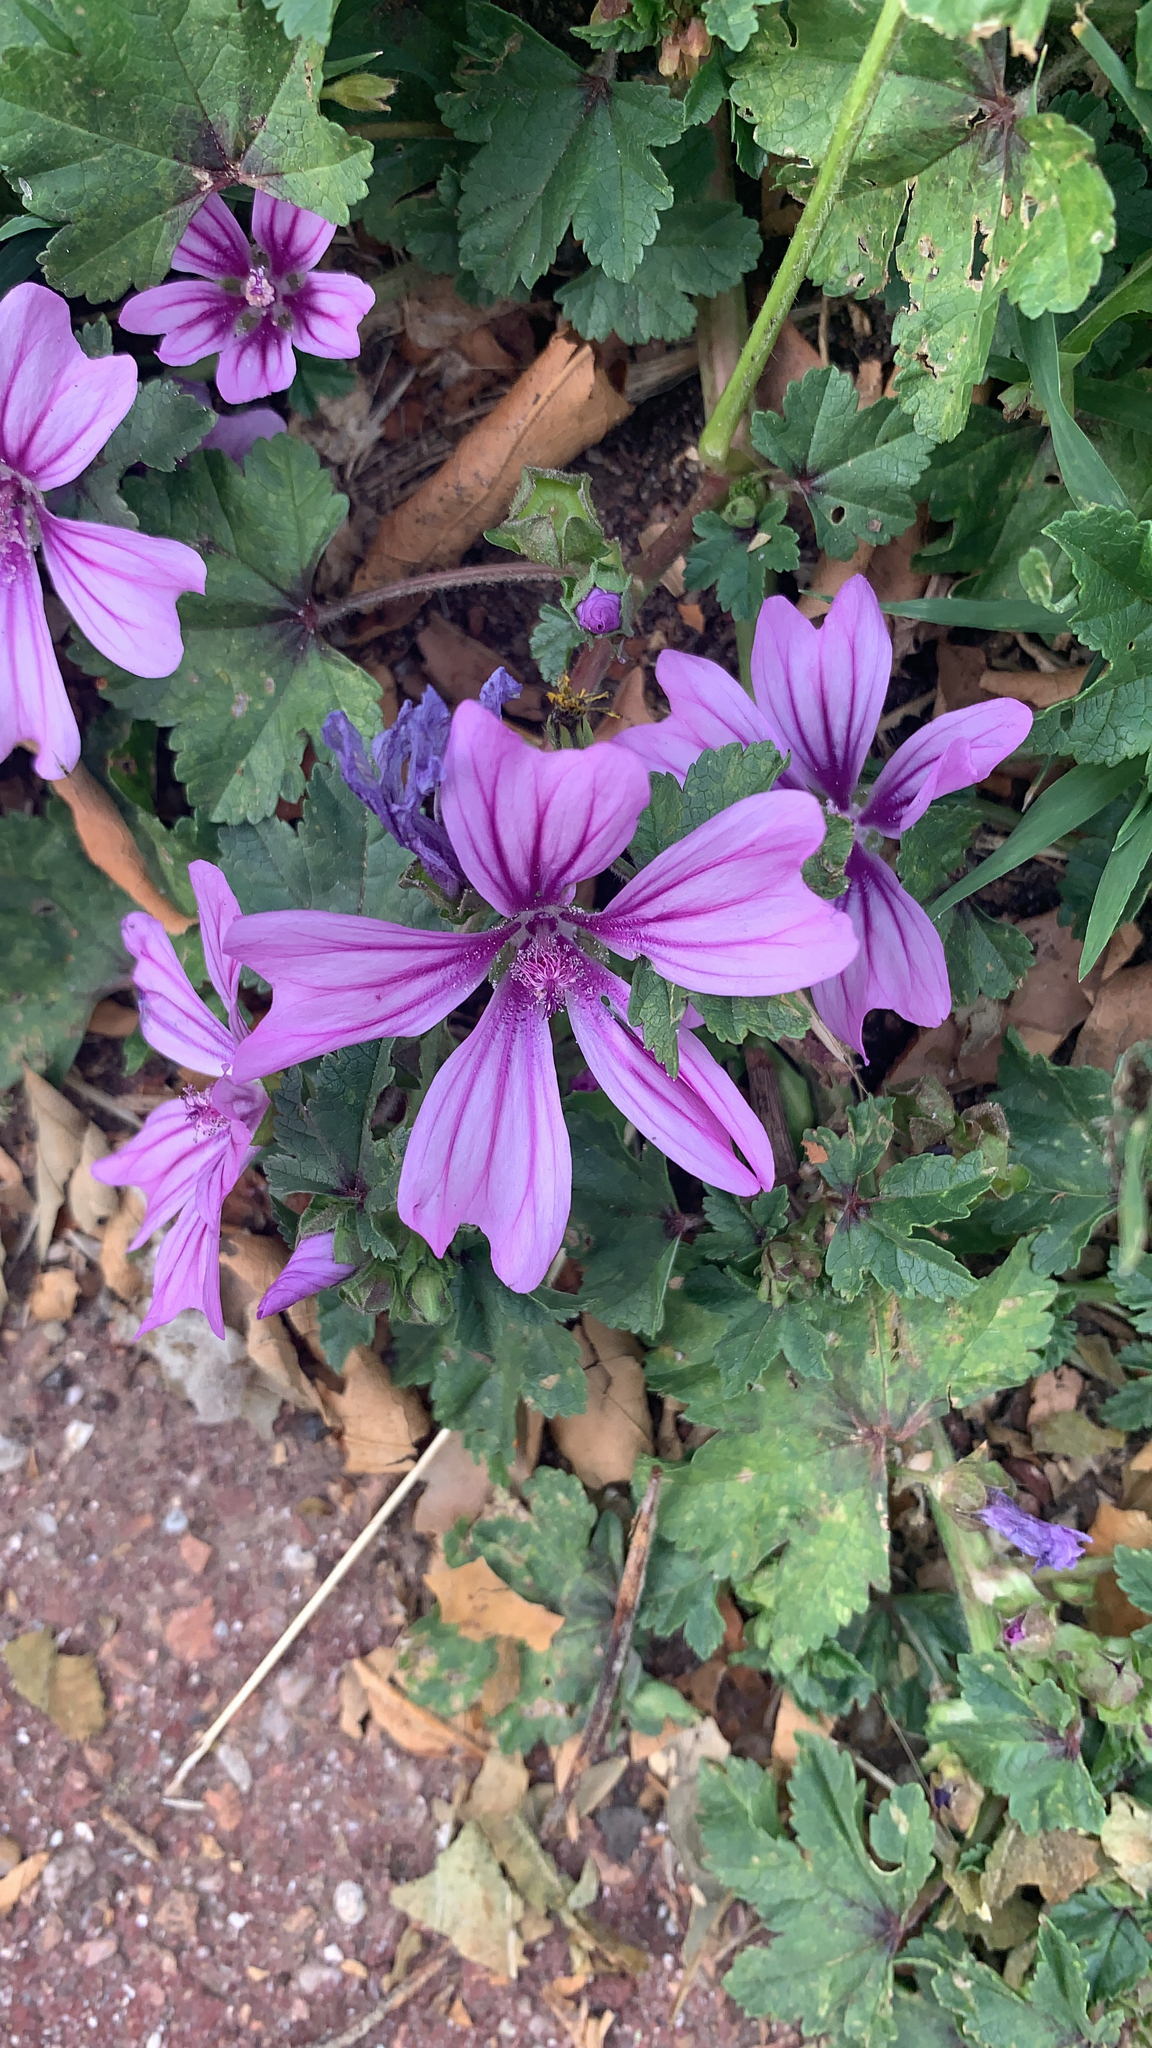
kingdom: Plantae
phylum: Tracheophyta
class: Magnoliopsida
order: Malvales
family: Malvaceae
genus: Malva
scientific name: Malva sylvestris
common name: Common mallow
